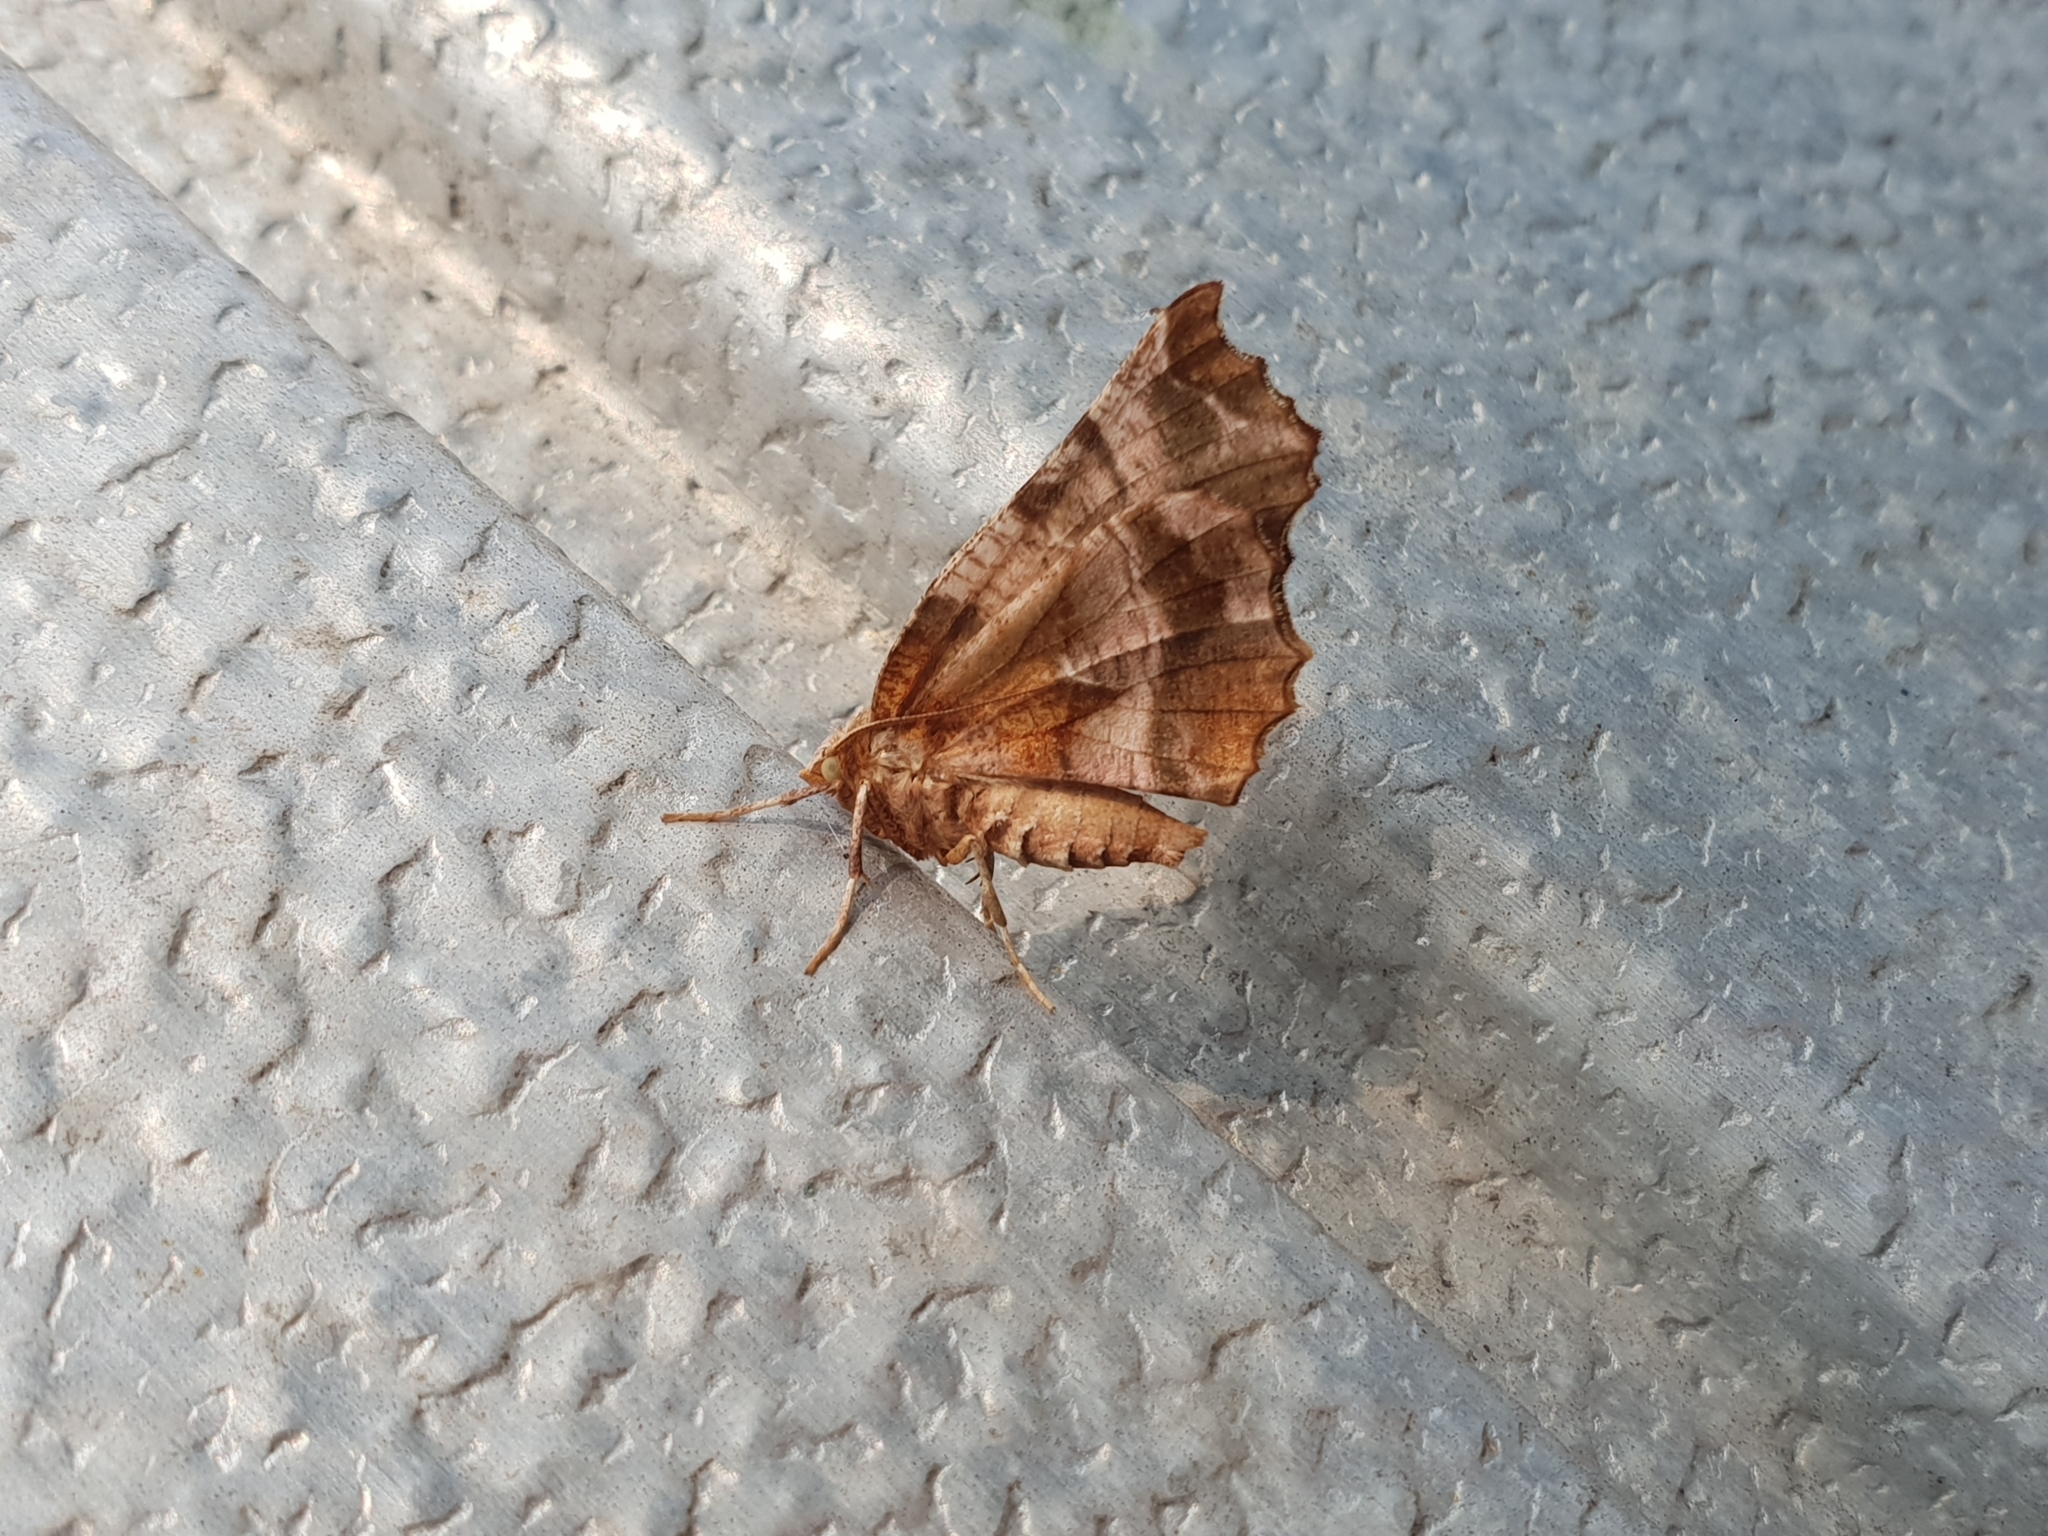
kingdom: Animalia
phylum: Arthropoda
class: Insecta
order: Lepidoptera
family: Geometridae
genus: Selenia
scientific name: Selenia dentaria
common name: Early thorn
